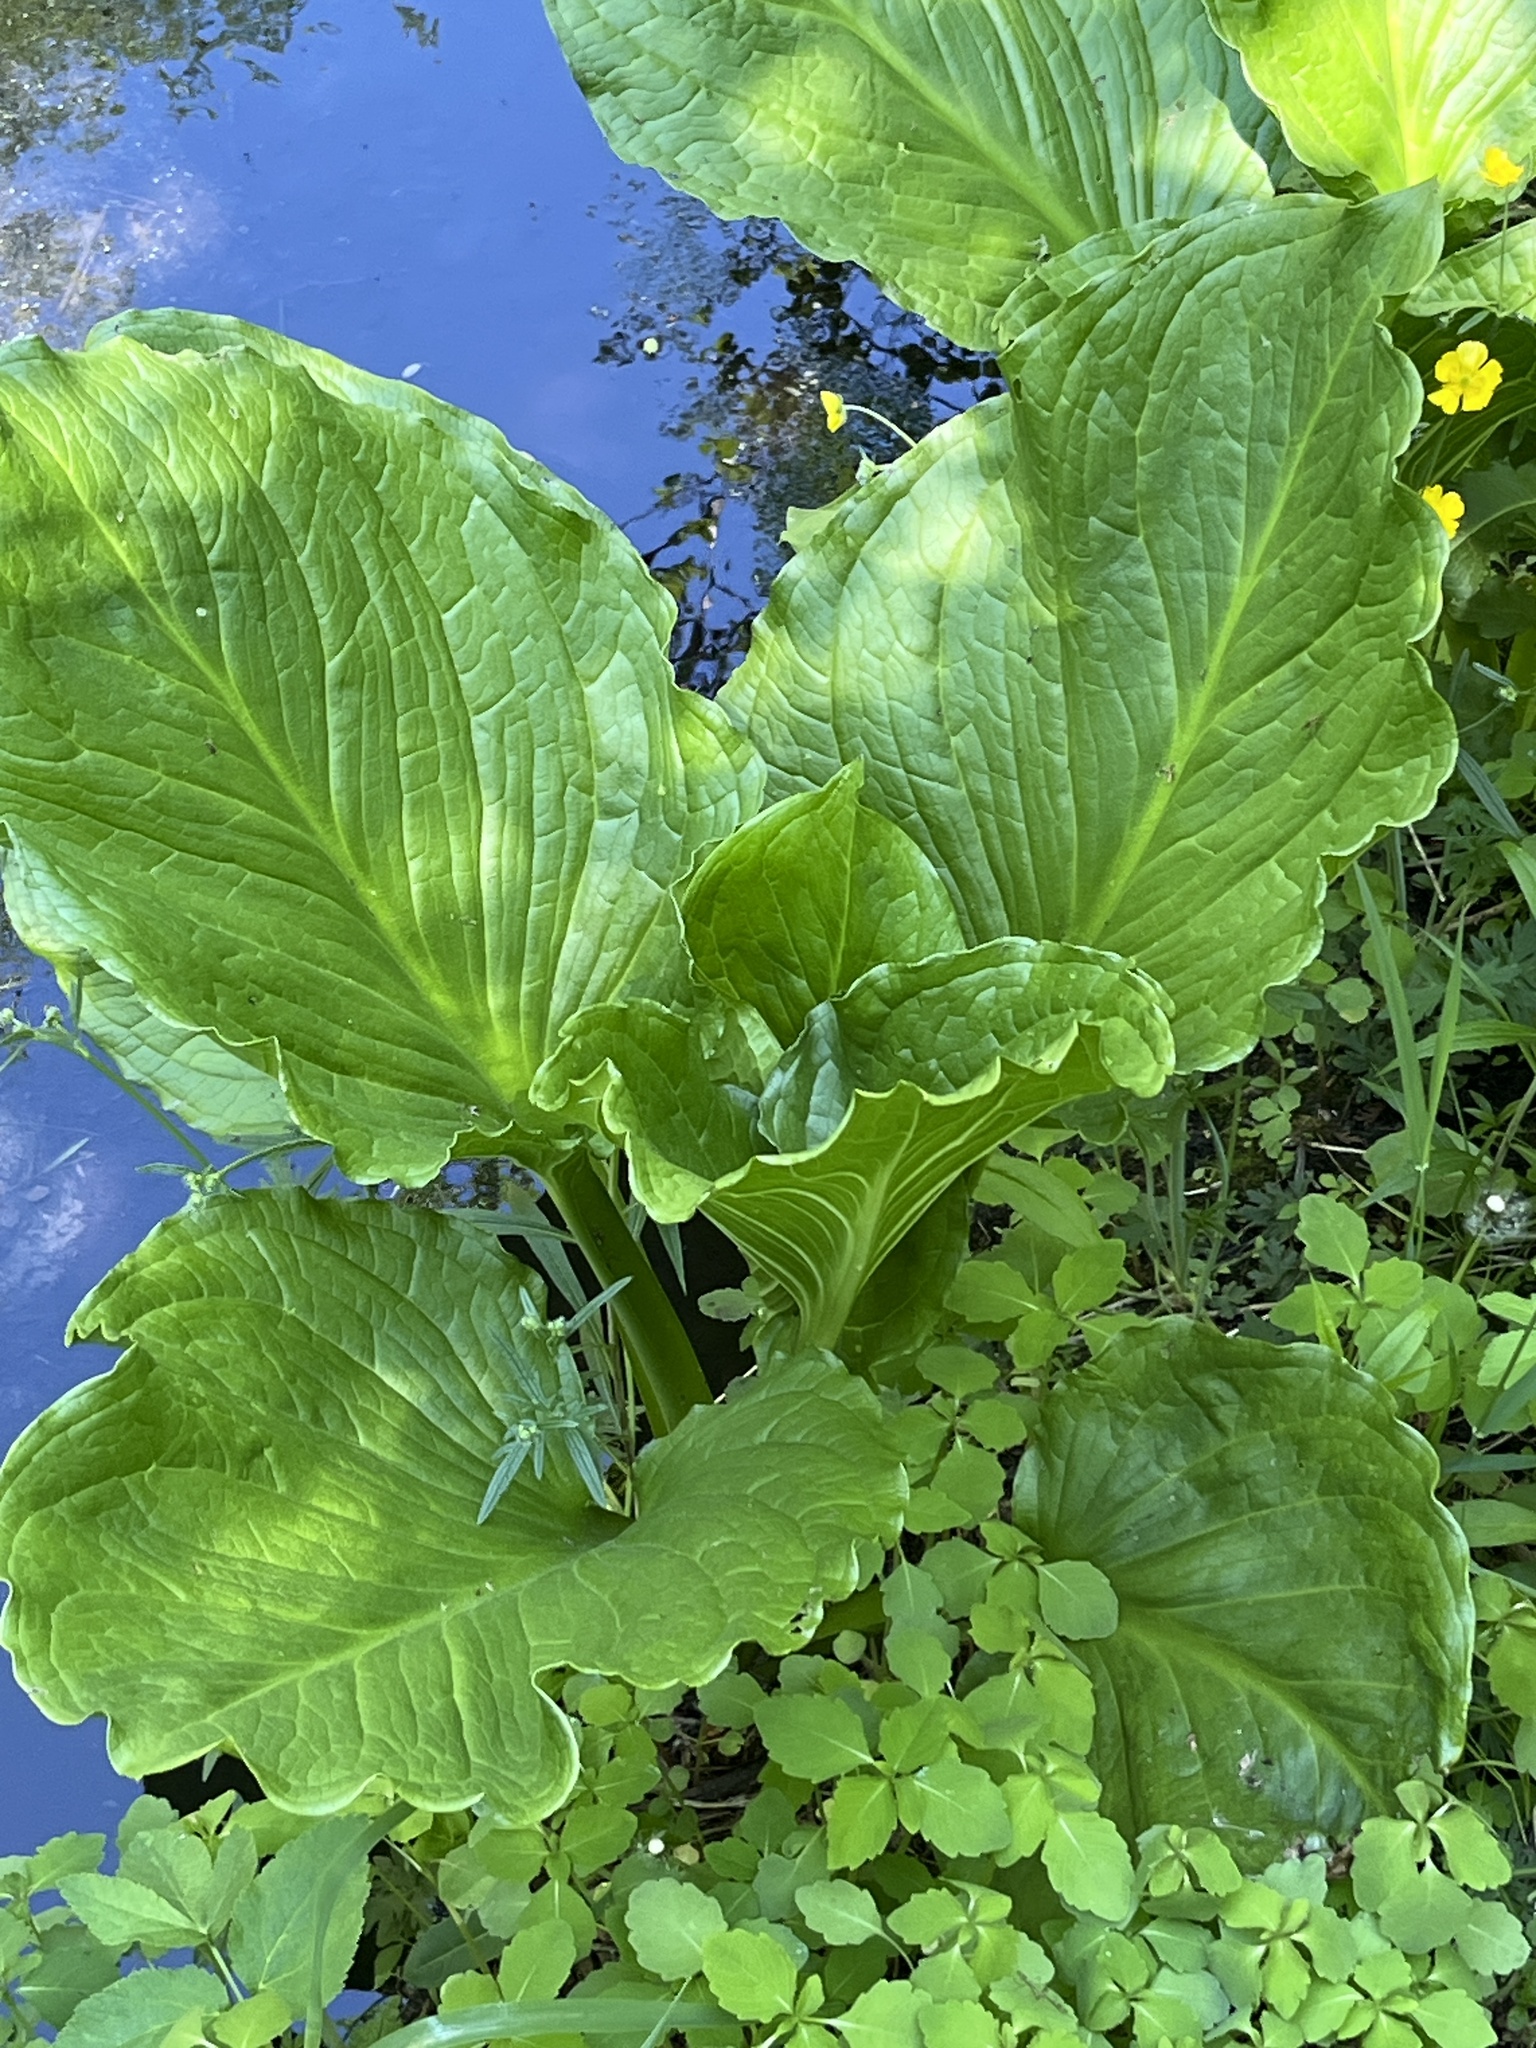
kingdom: Plantae
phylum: Tracheophyta
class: Liliopsida
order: Alismatales
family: Araceae
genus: Symplocarpus
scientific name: Symplocarpus foetidus
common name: Eastern skunk cabbage
